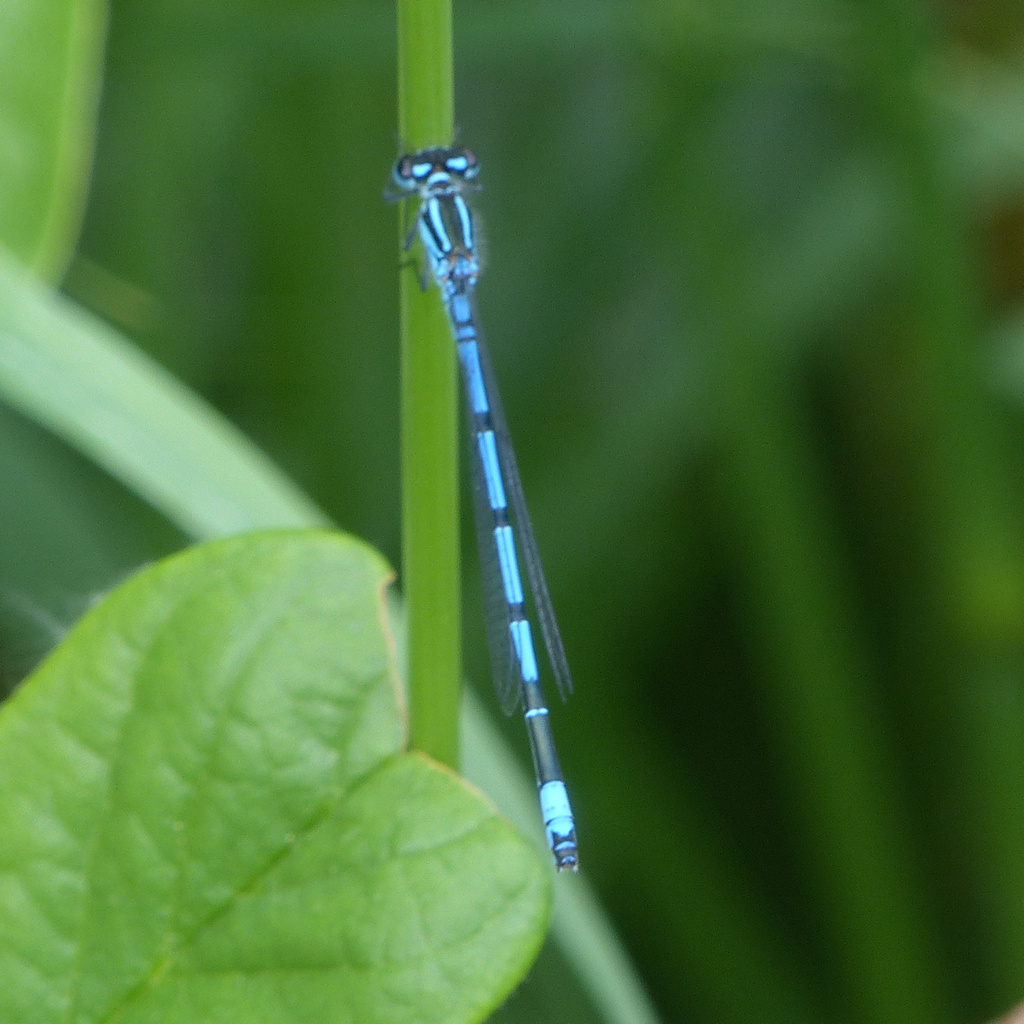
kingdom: Animalia
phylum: Arthropoda
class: Insecta
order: Odonata
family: Coenagrionidae
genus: Coenagrion
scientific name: Coenagrion puella
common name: Azure damselfly
